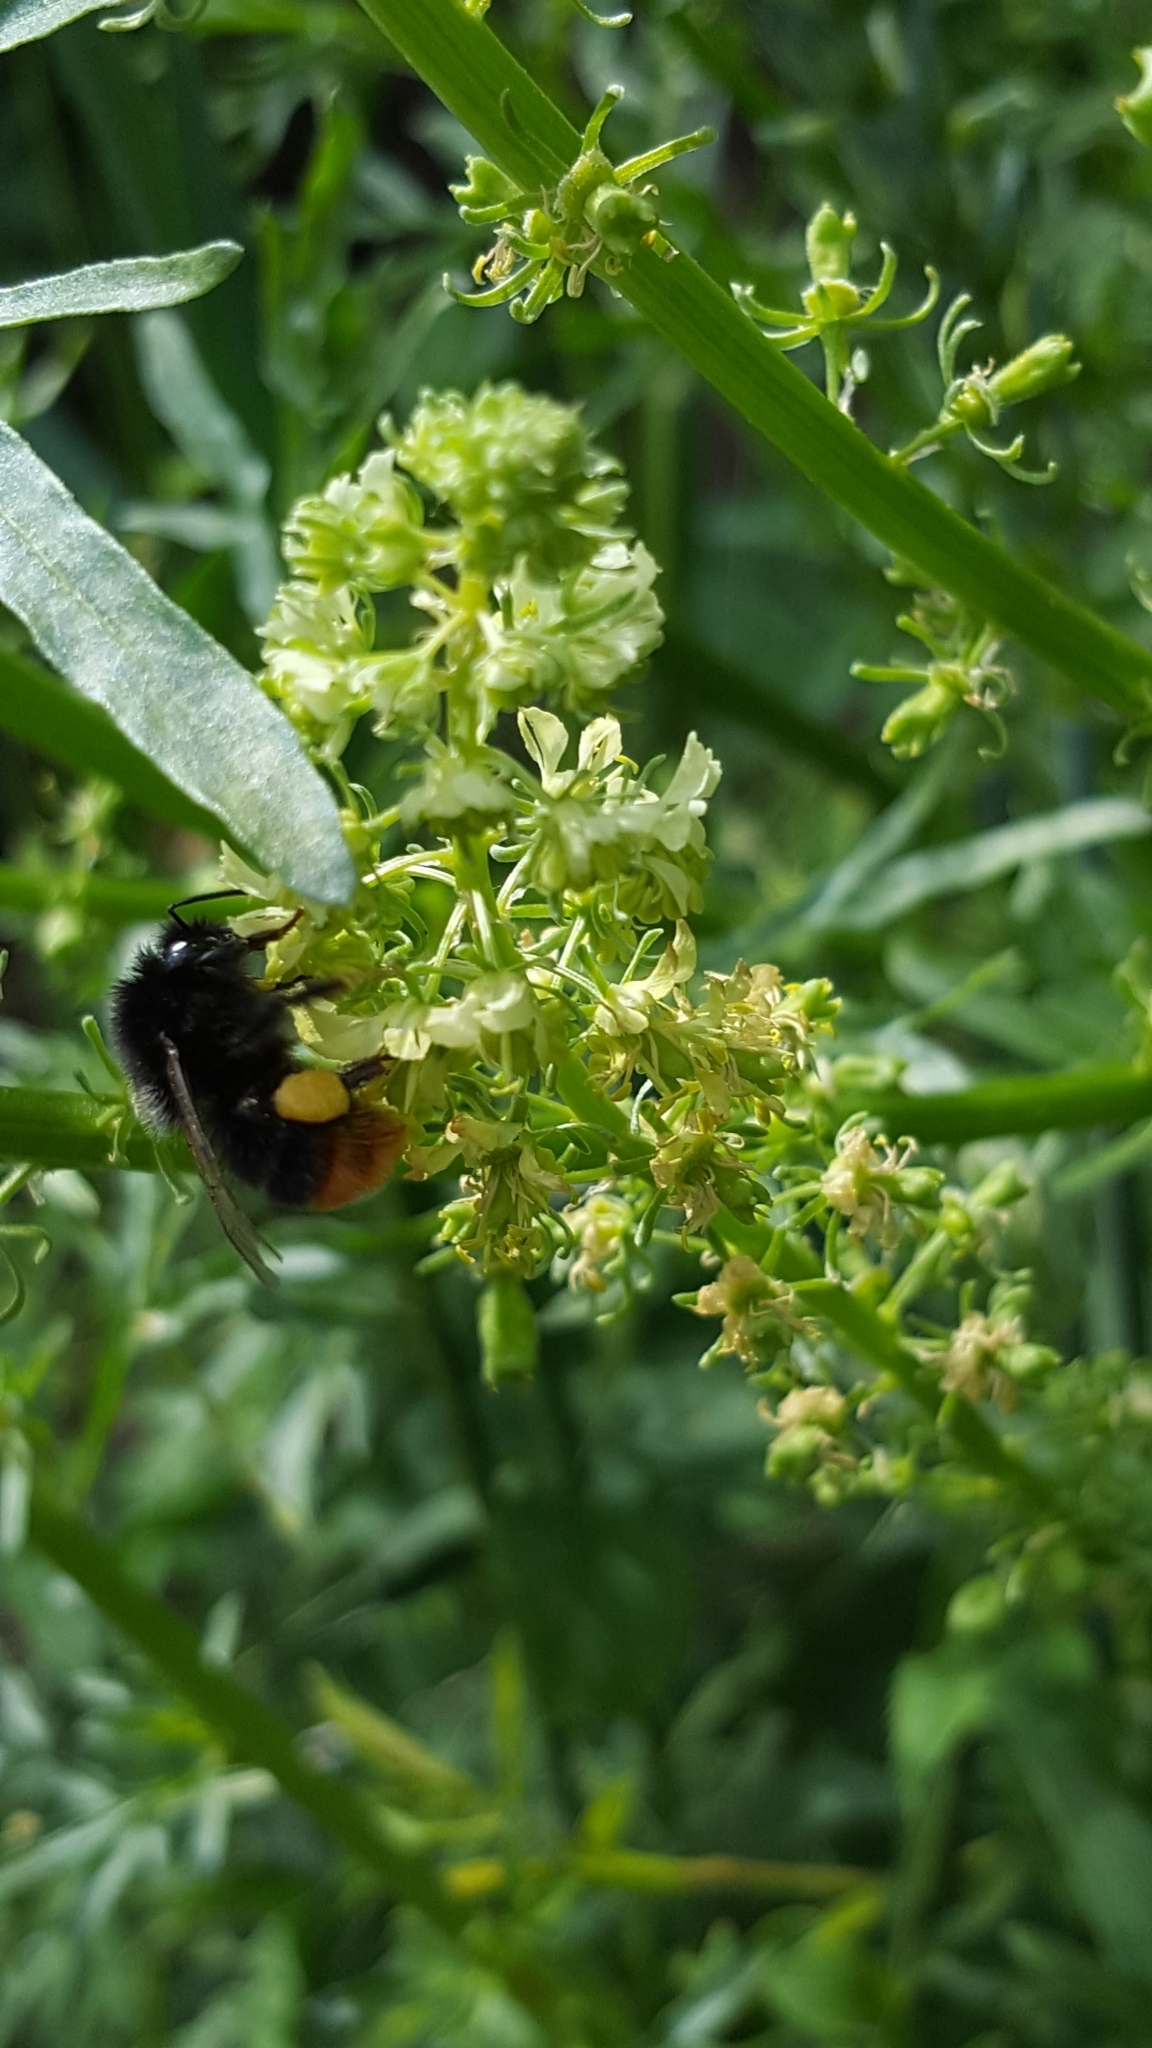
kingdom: Animalia
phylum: Arthropoda
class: Insecta
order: Hymenoptera
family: Apidae
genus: Bombus
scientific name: Bombus lapidarius
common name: Large red-tailed humble-bee
